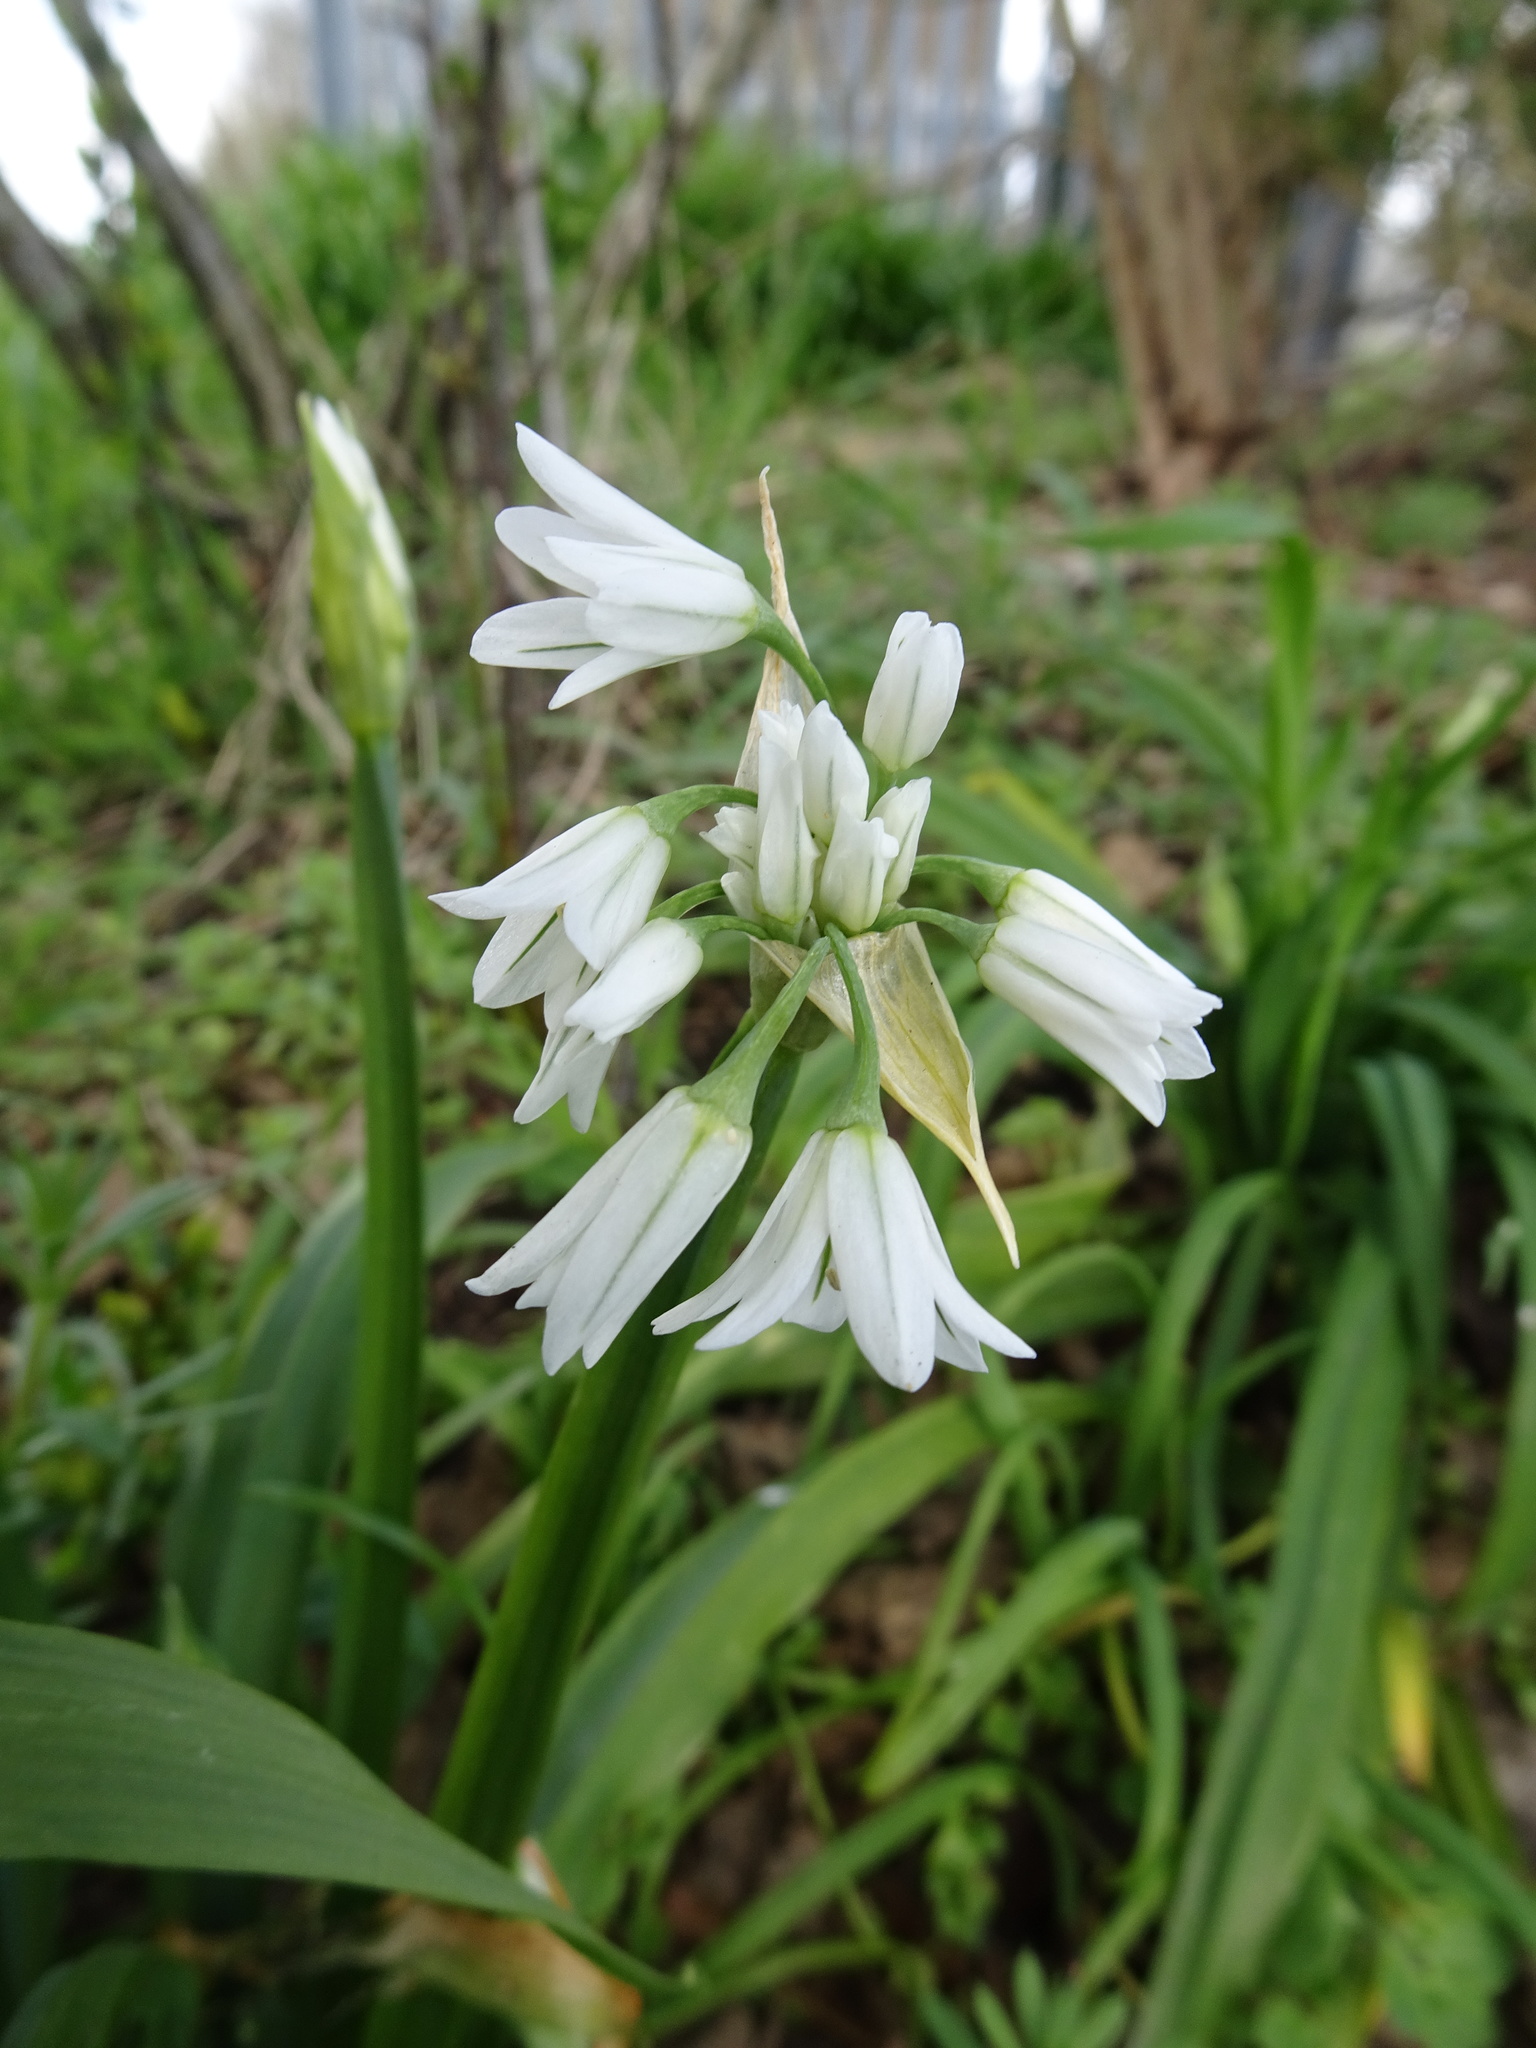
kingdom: Plantae
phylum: Tracheophyta
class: Liliopsida
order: Asparagales
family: Amaryllidaceae
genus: Allium
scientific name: Allium triquetrum
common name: Three-cornered garlic
